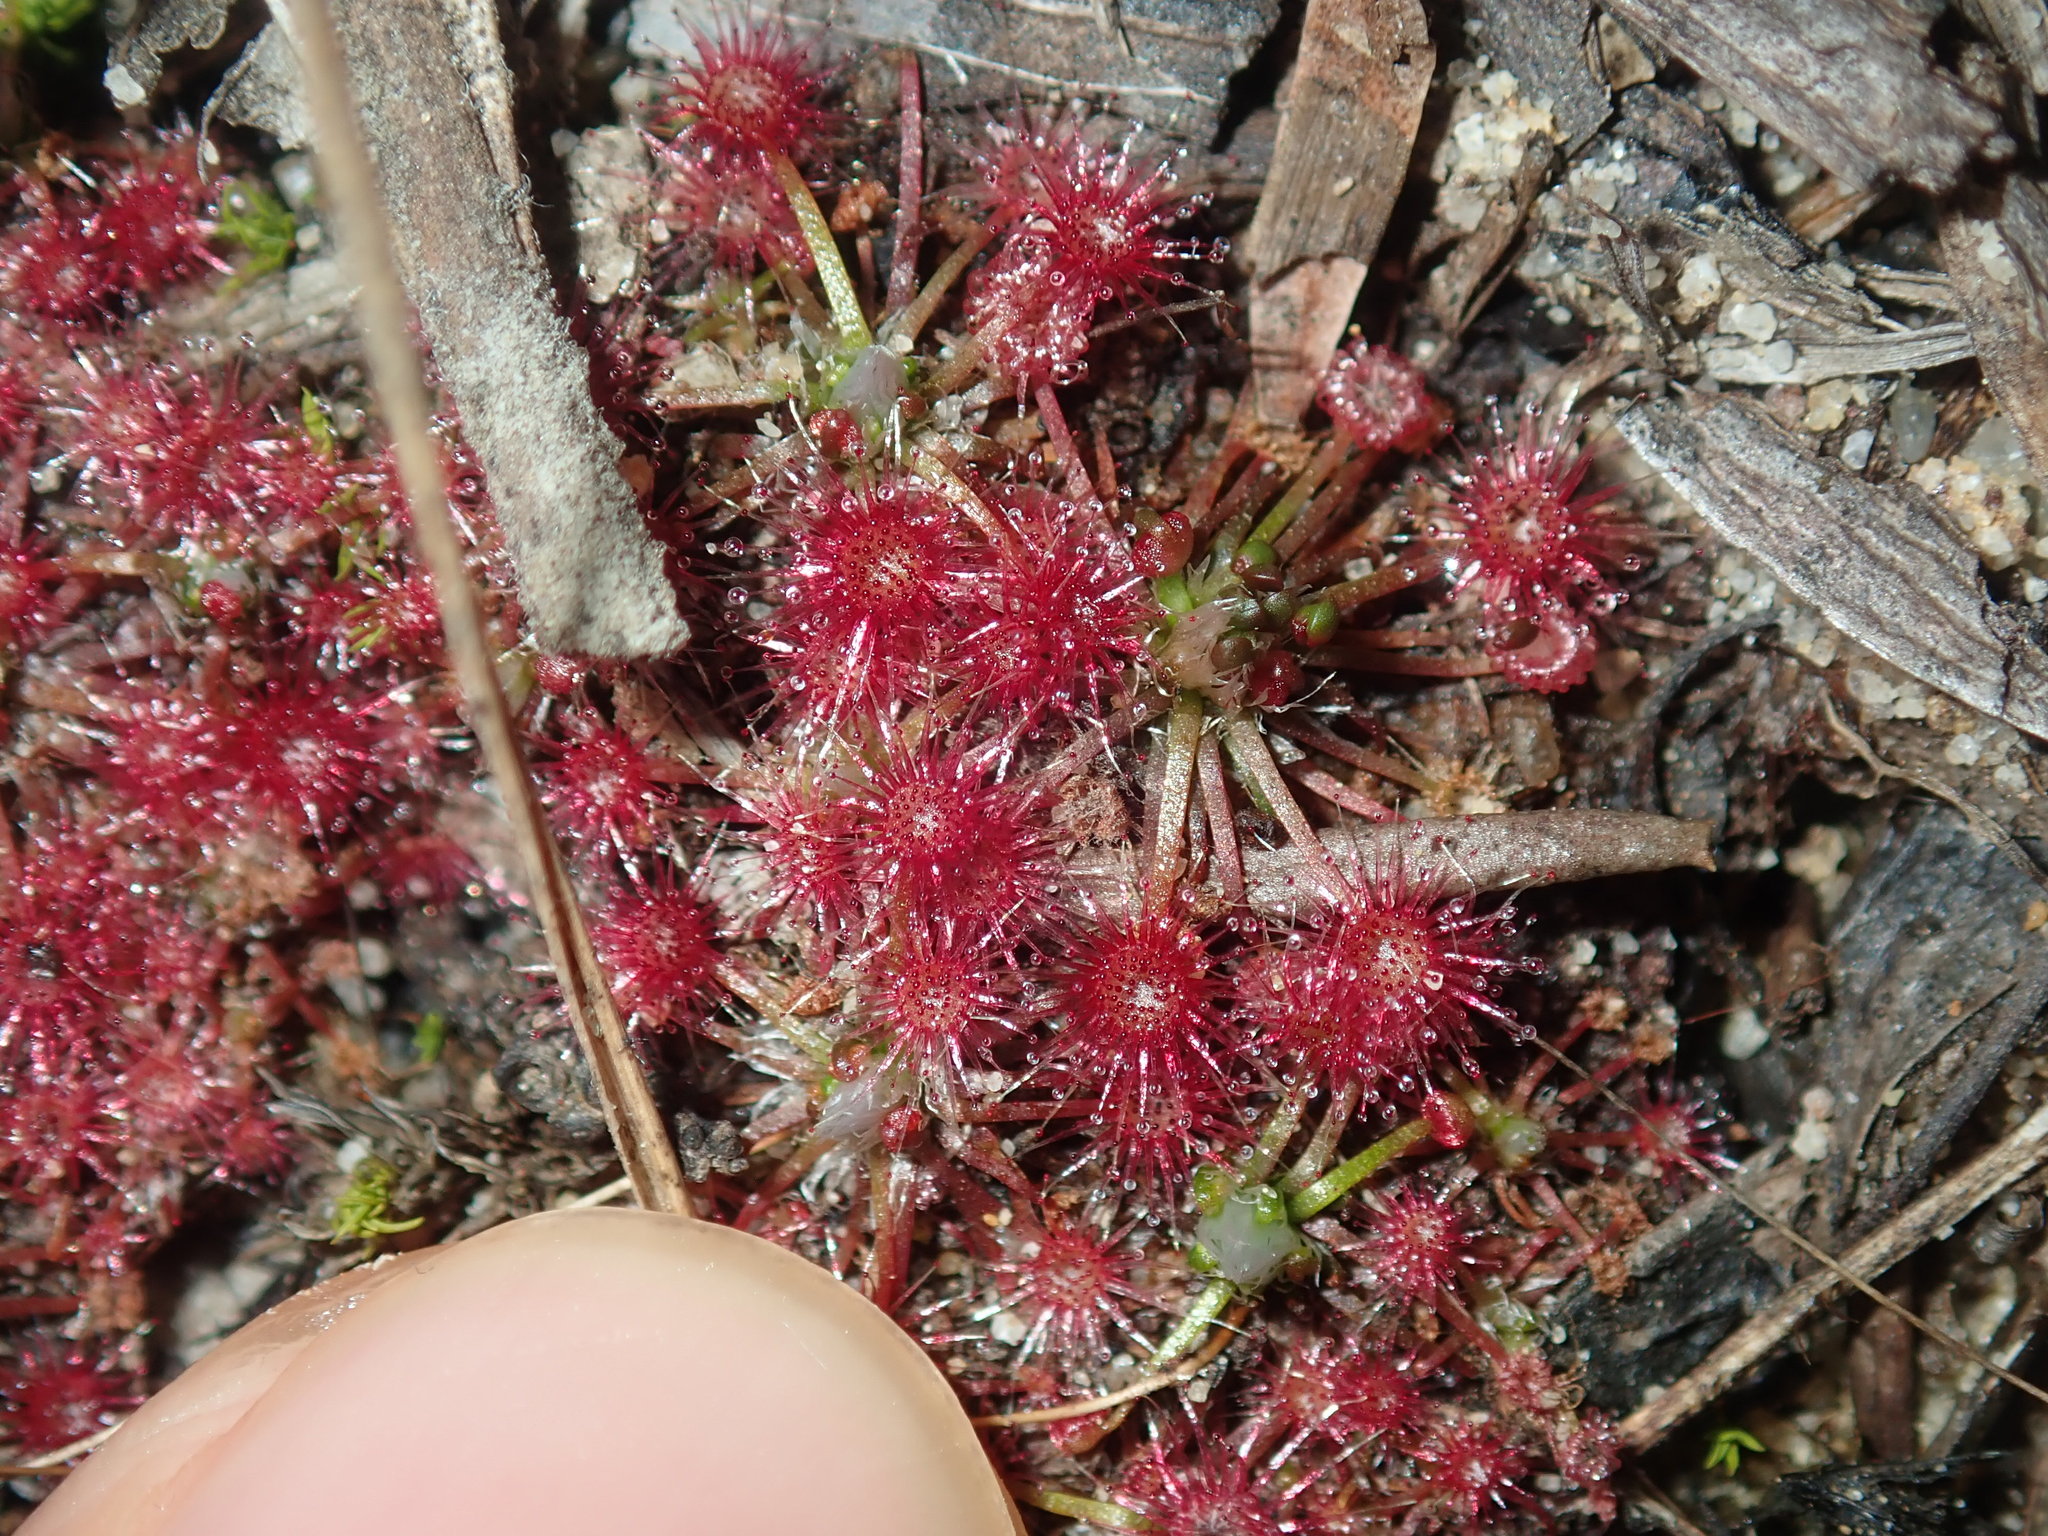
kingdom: Plantae
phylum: Tracheophyta
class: Magnoliopsida
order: Caryophyllales
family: Droseraceae
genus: Drosera
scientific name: Drosera pygmaea
